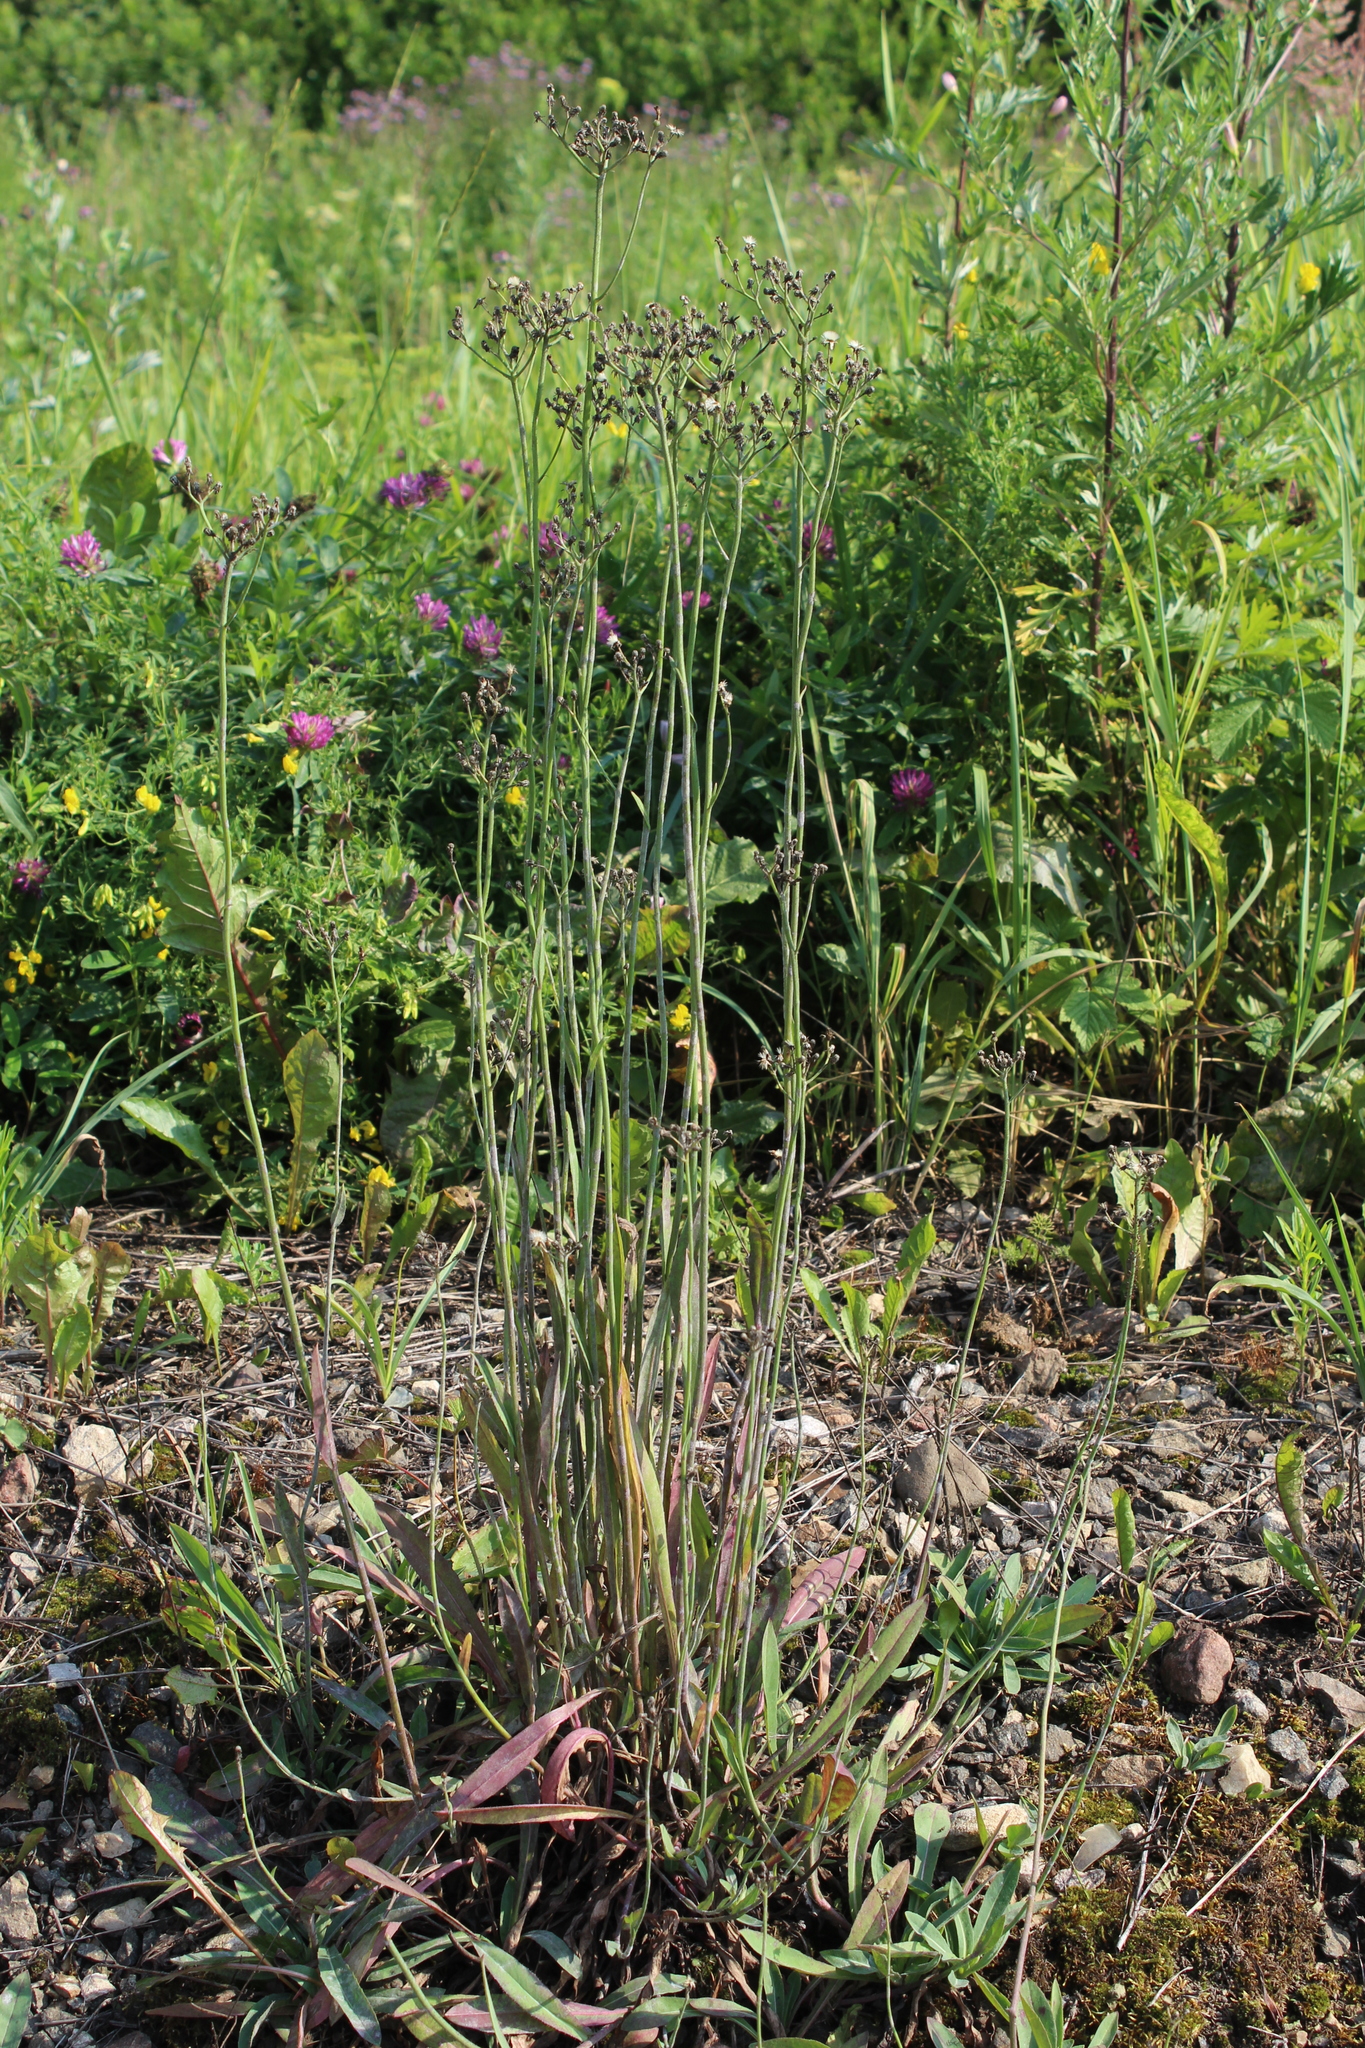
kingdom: Plantae
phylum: Tracheophyta
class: Magnoliopsida
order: Asterales
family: Asteraceae
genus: Pilosella
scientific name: Pilosella
